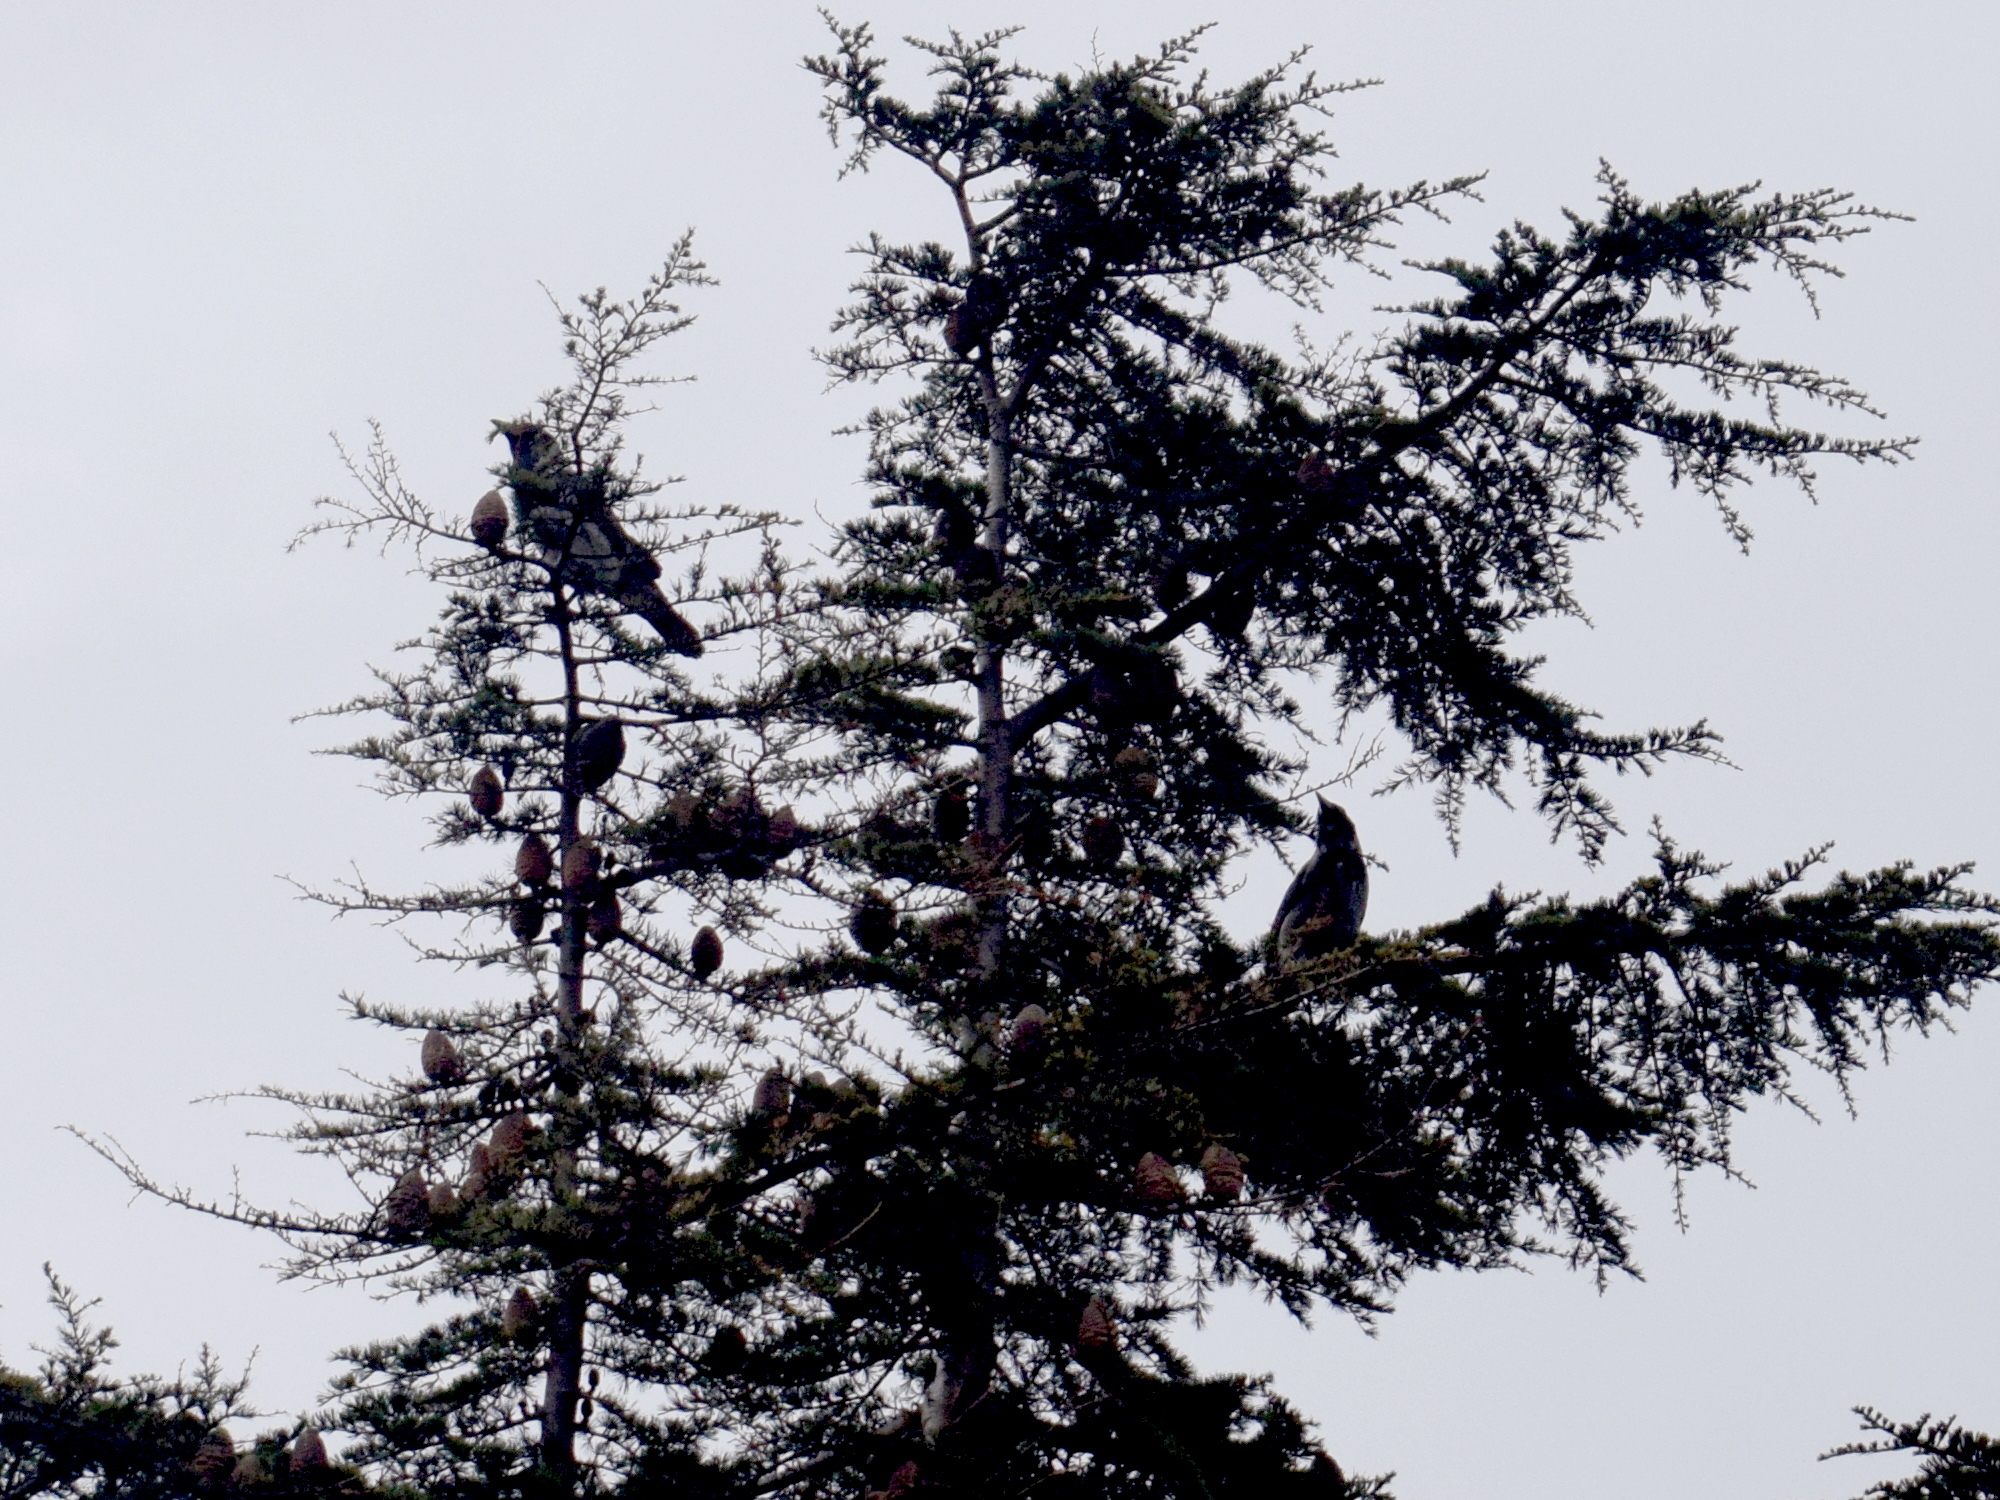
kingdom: Animalia
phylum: Chordata
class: Aves
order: Passeriformes
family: Corvidae
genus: Corvus
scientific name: Corvus cornix
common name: Hooded crow
